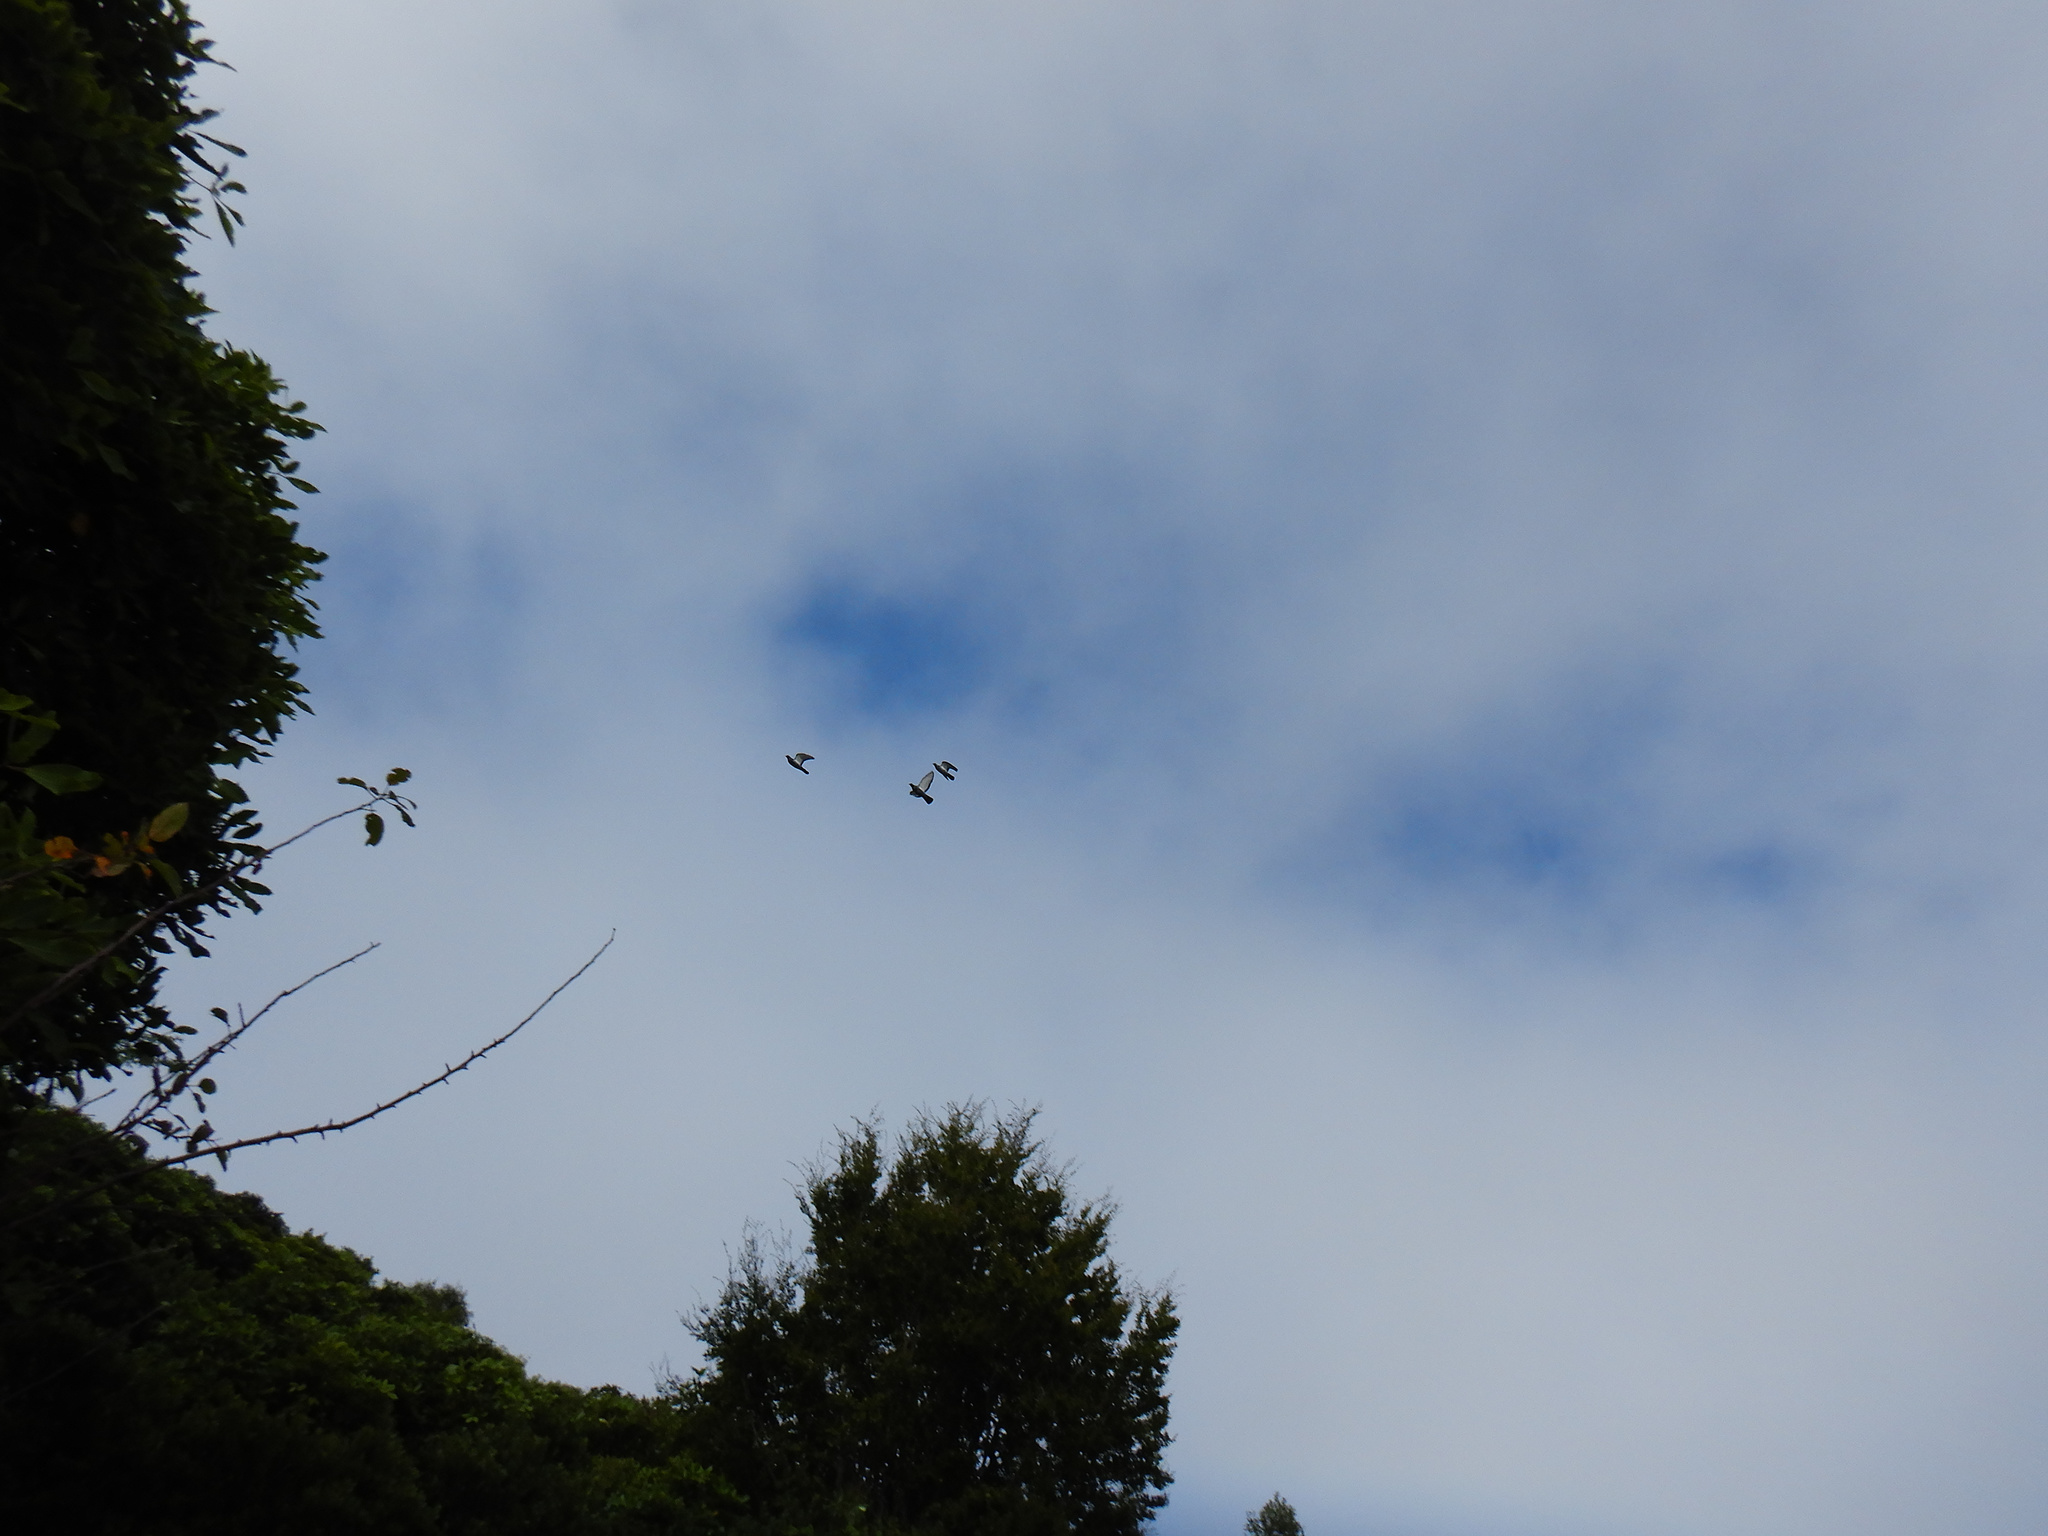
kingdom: Animalia
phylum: Chordata
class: Aves
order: Columbiformes
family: Columbidae
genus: Columba
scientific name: Columba livia
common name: Rock pigeon
